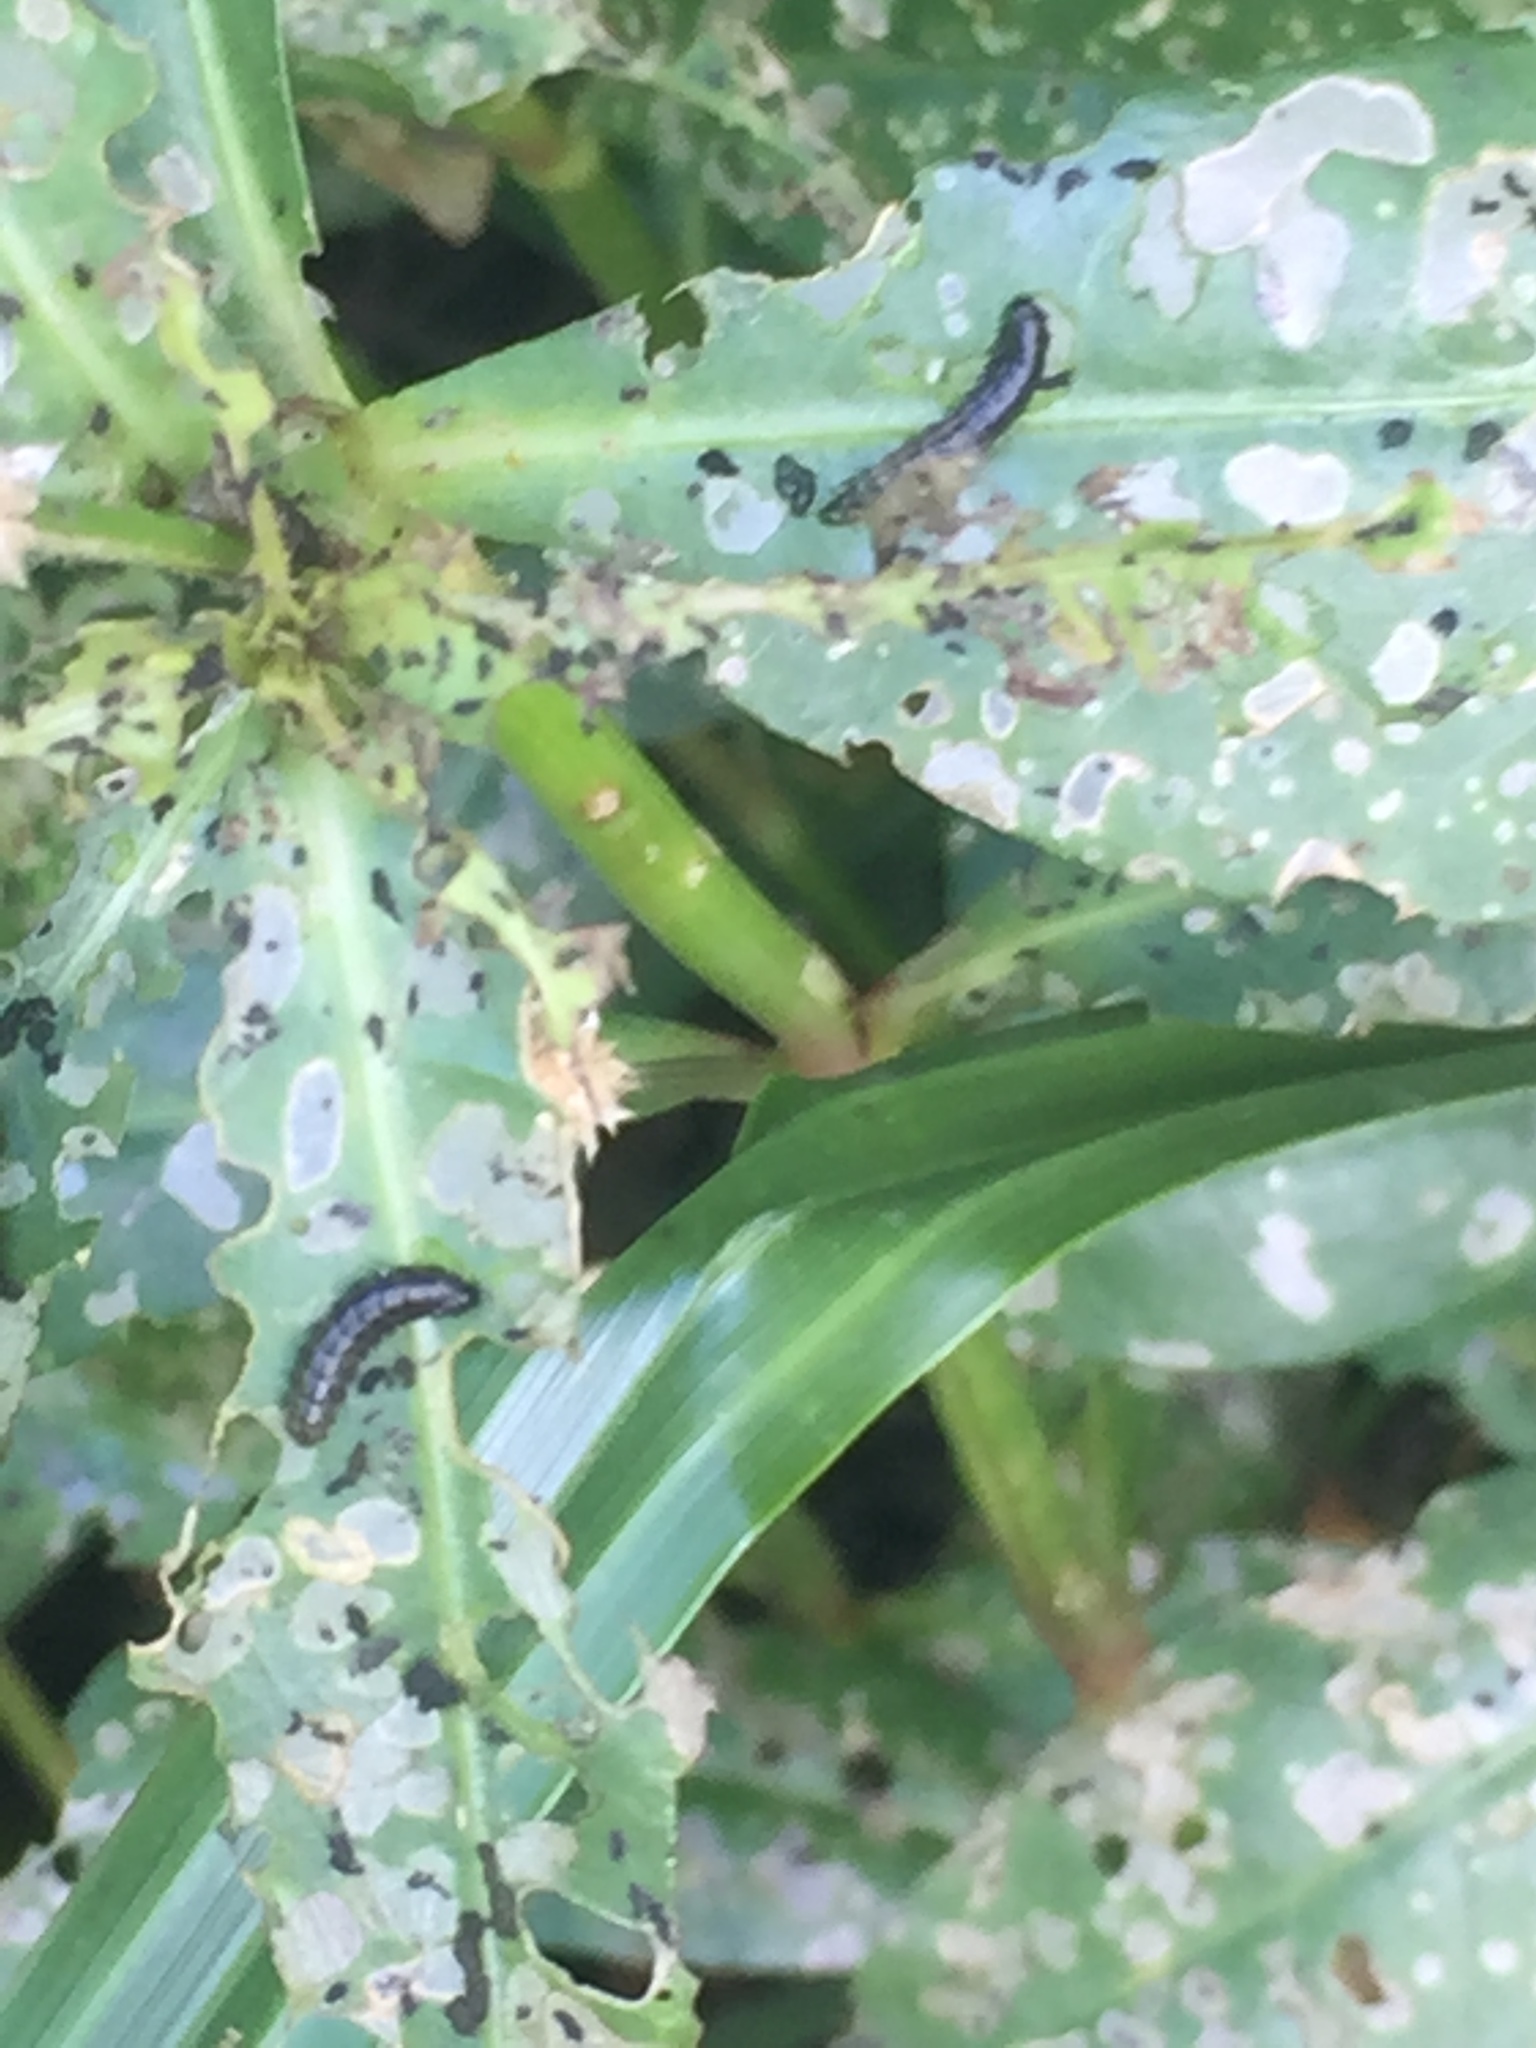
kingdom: Animalia
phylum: Arthropoda
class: Insecta
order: Coleoptera
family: Chrysomelidae
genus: Agasicles
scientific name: Agasicles hygrophila
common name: Alligatorweed flea beetle
